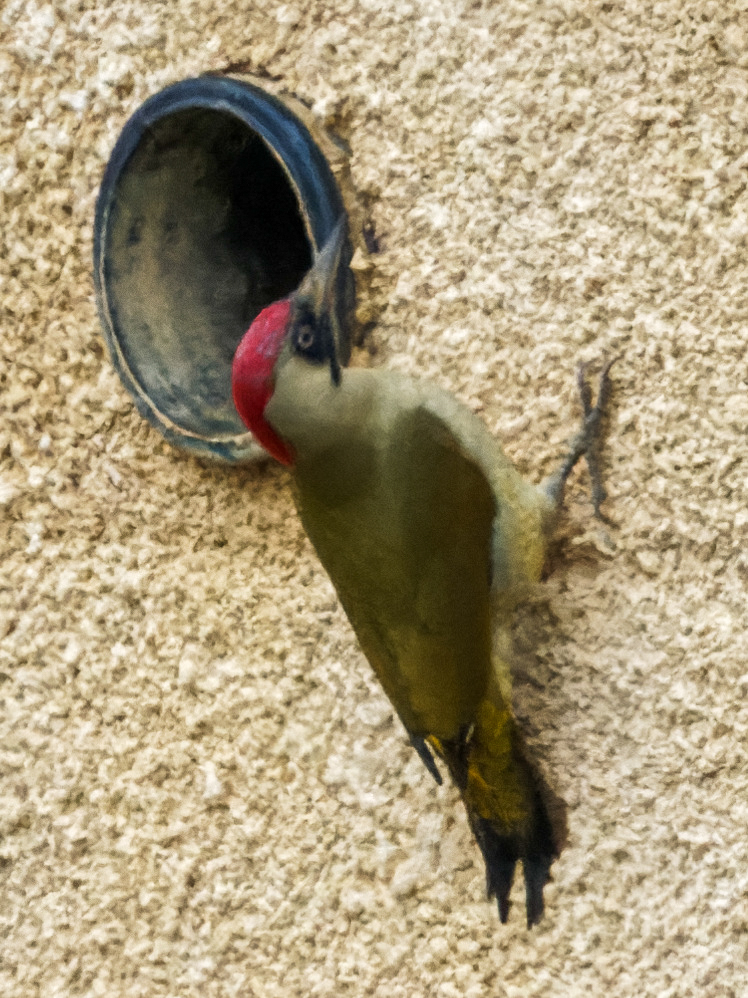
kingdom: Animalia
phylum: Chordata
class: Aves
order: Piciformes
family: Picidae
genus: Picus
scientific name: Picus viridis
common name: European green woodpecker
